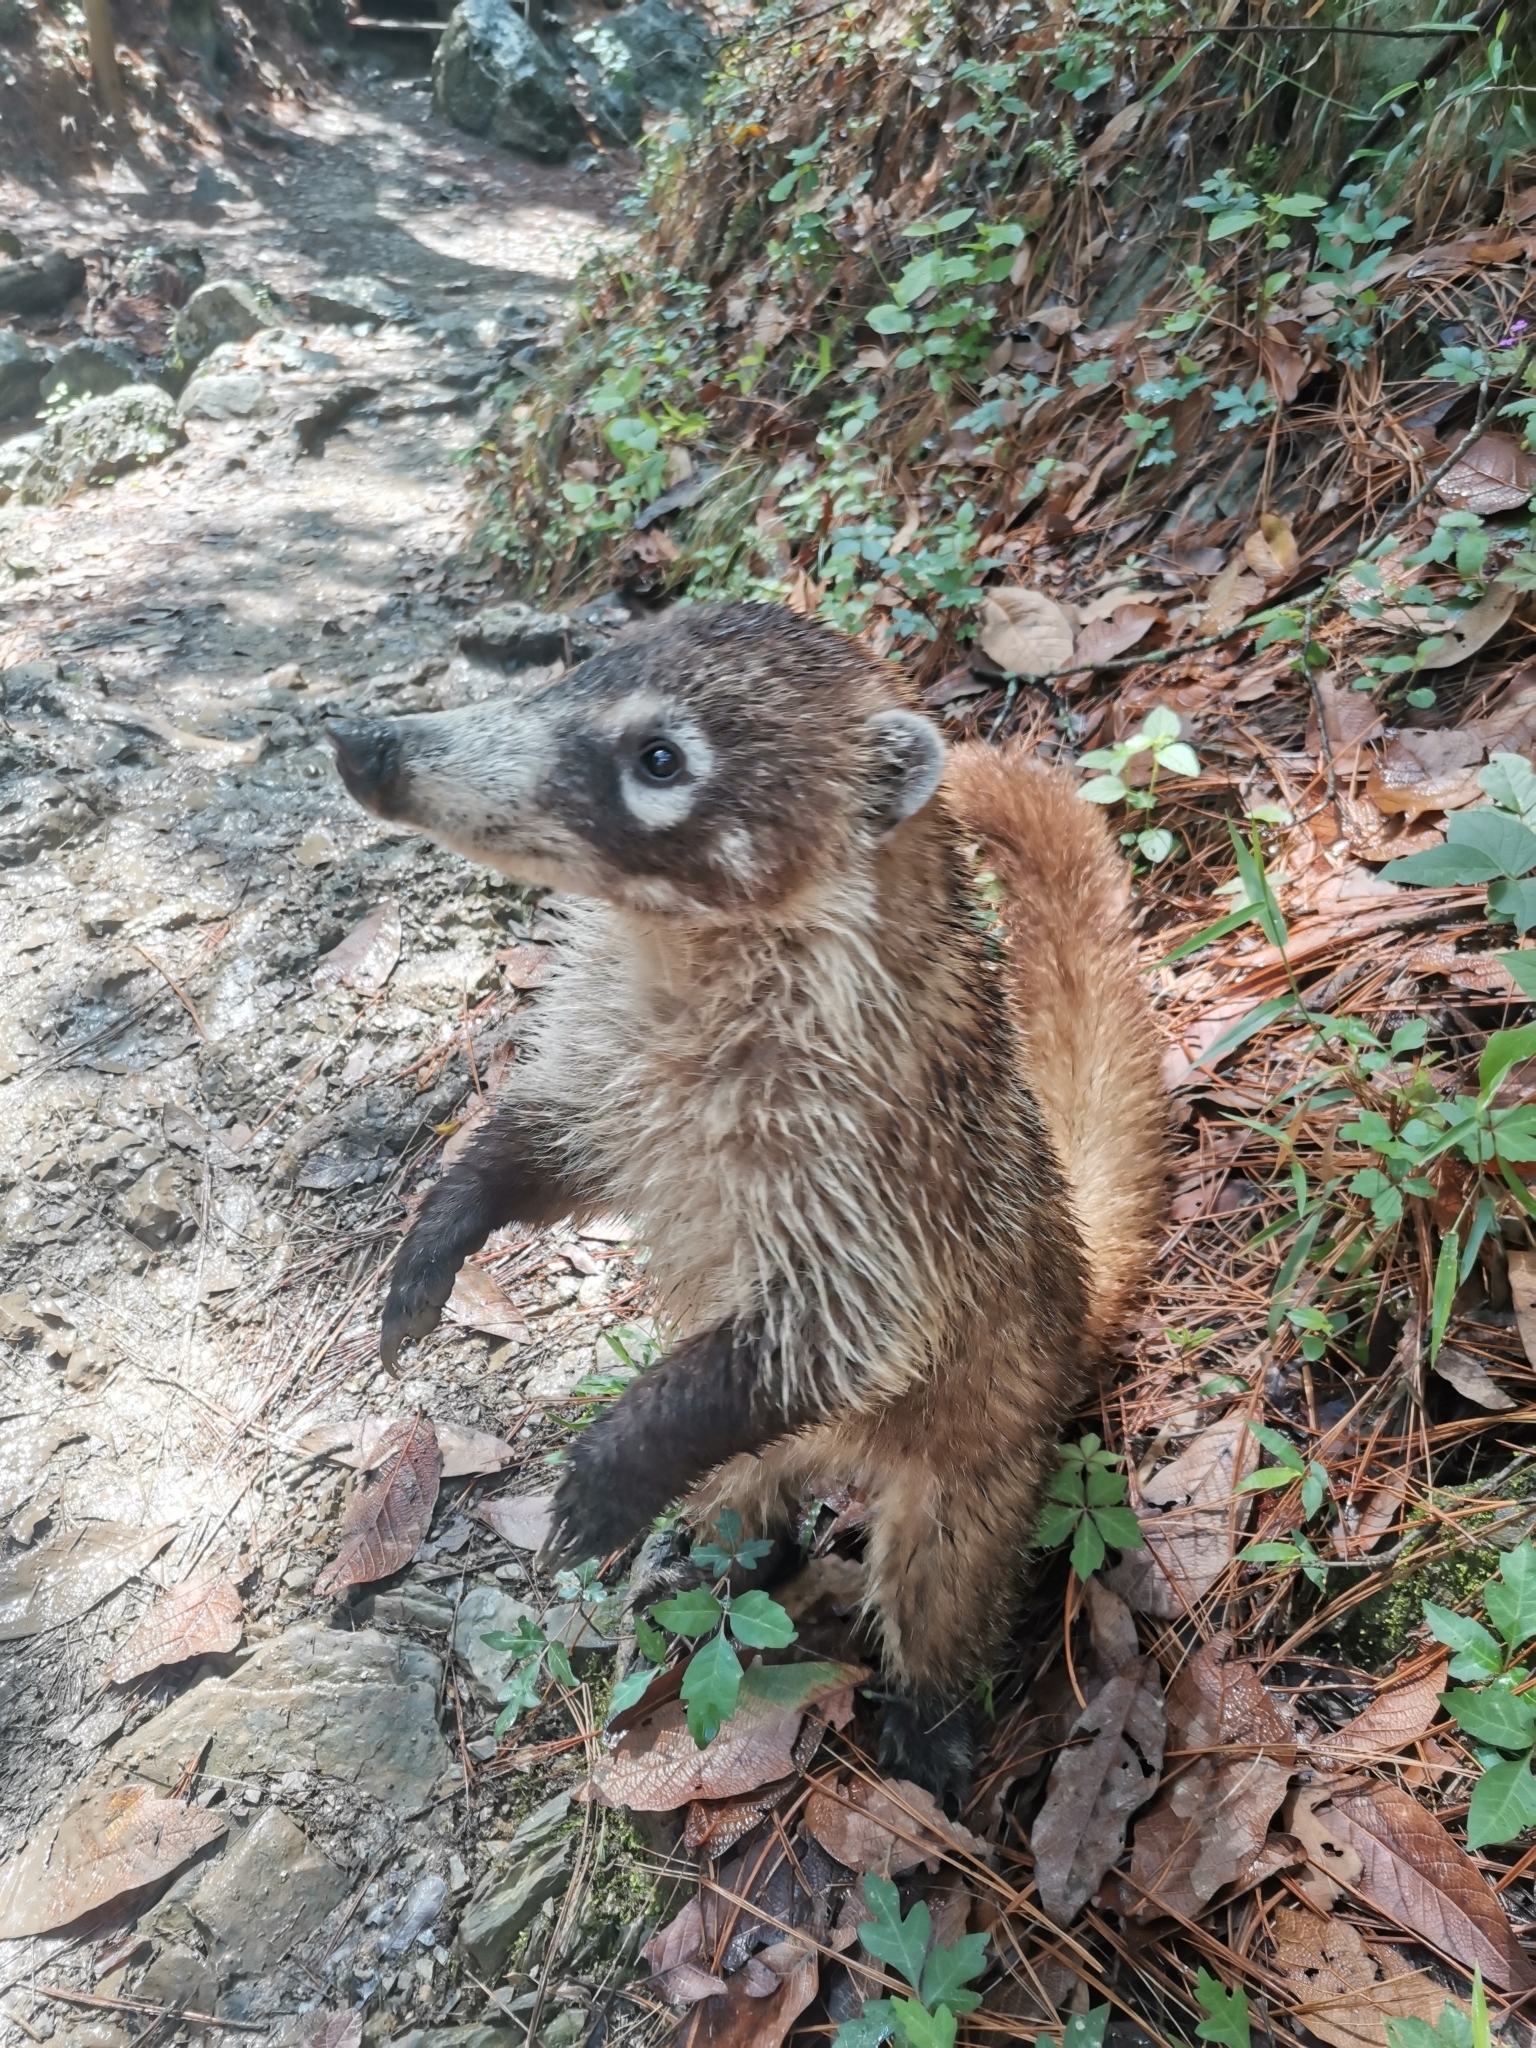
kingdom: Animalia
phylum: Chordata
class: Mammalia
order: Carnivora
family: Procyonidae
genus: Nasua
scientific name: Nasua narica
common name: White-nosed coati
